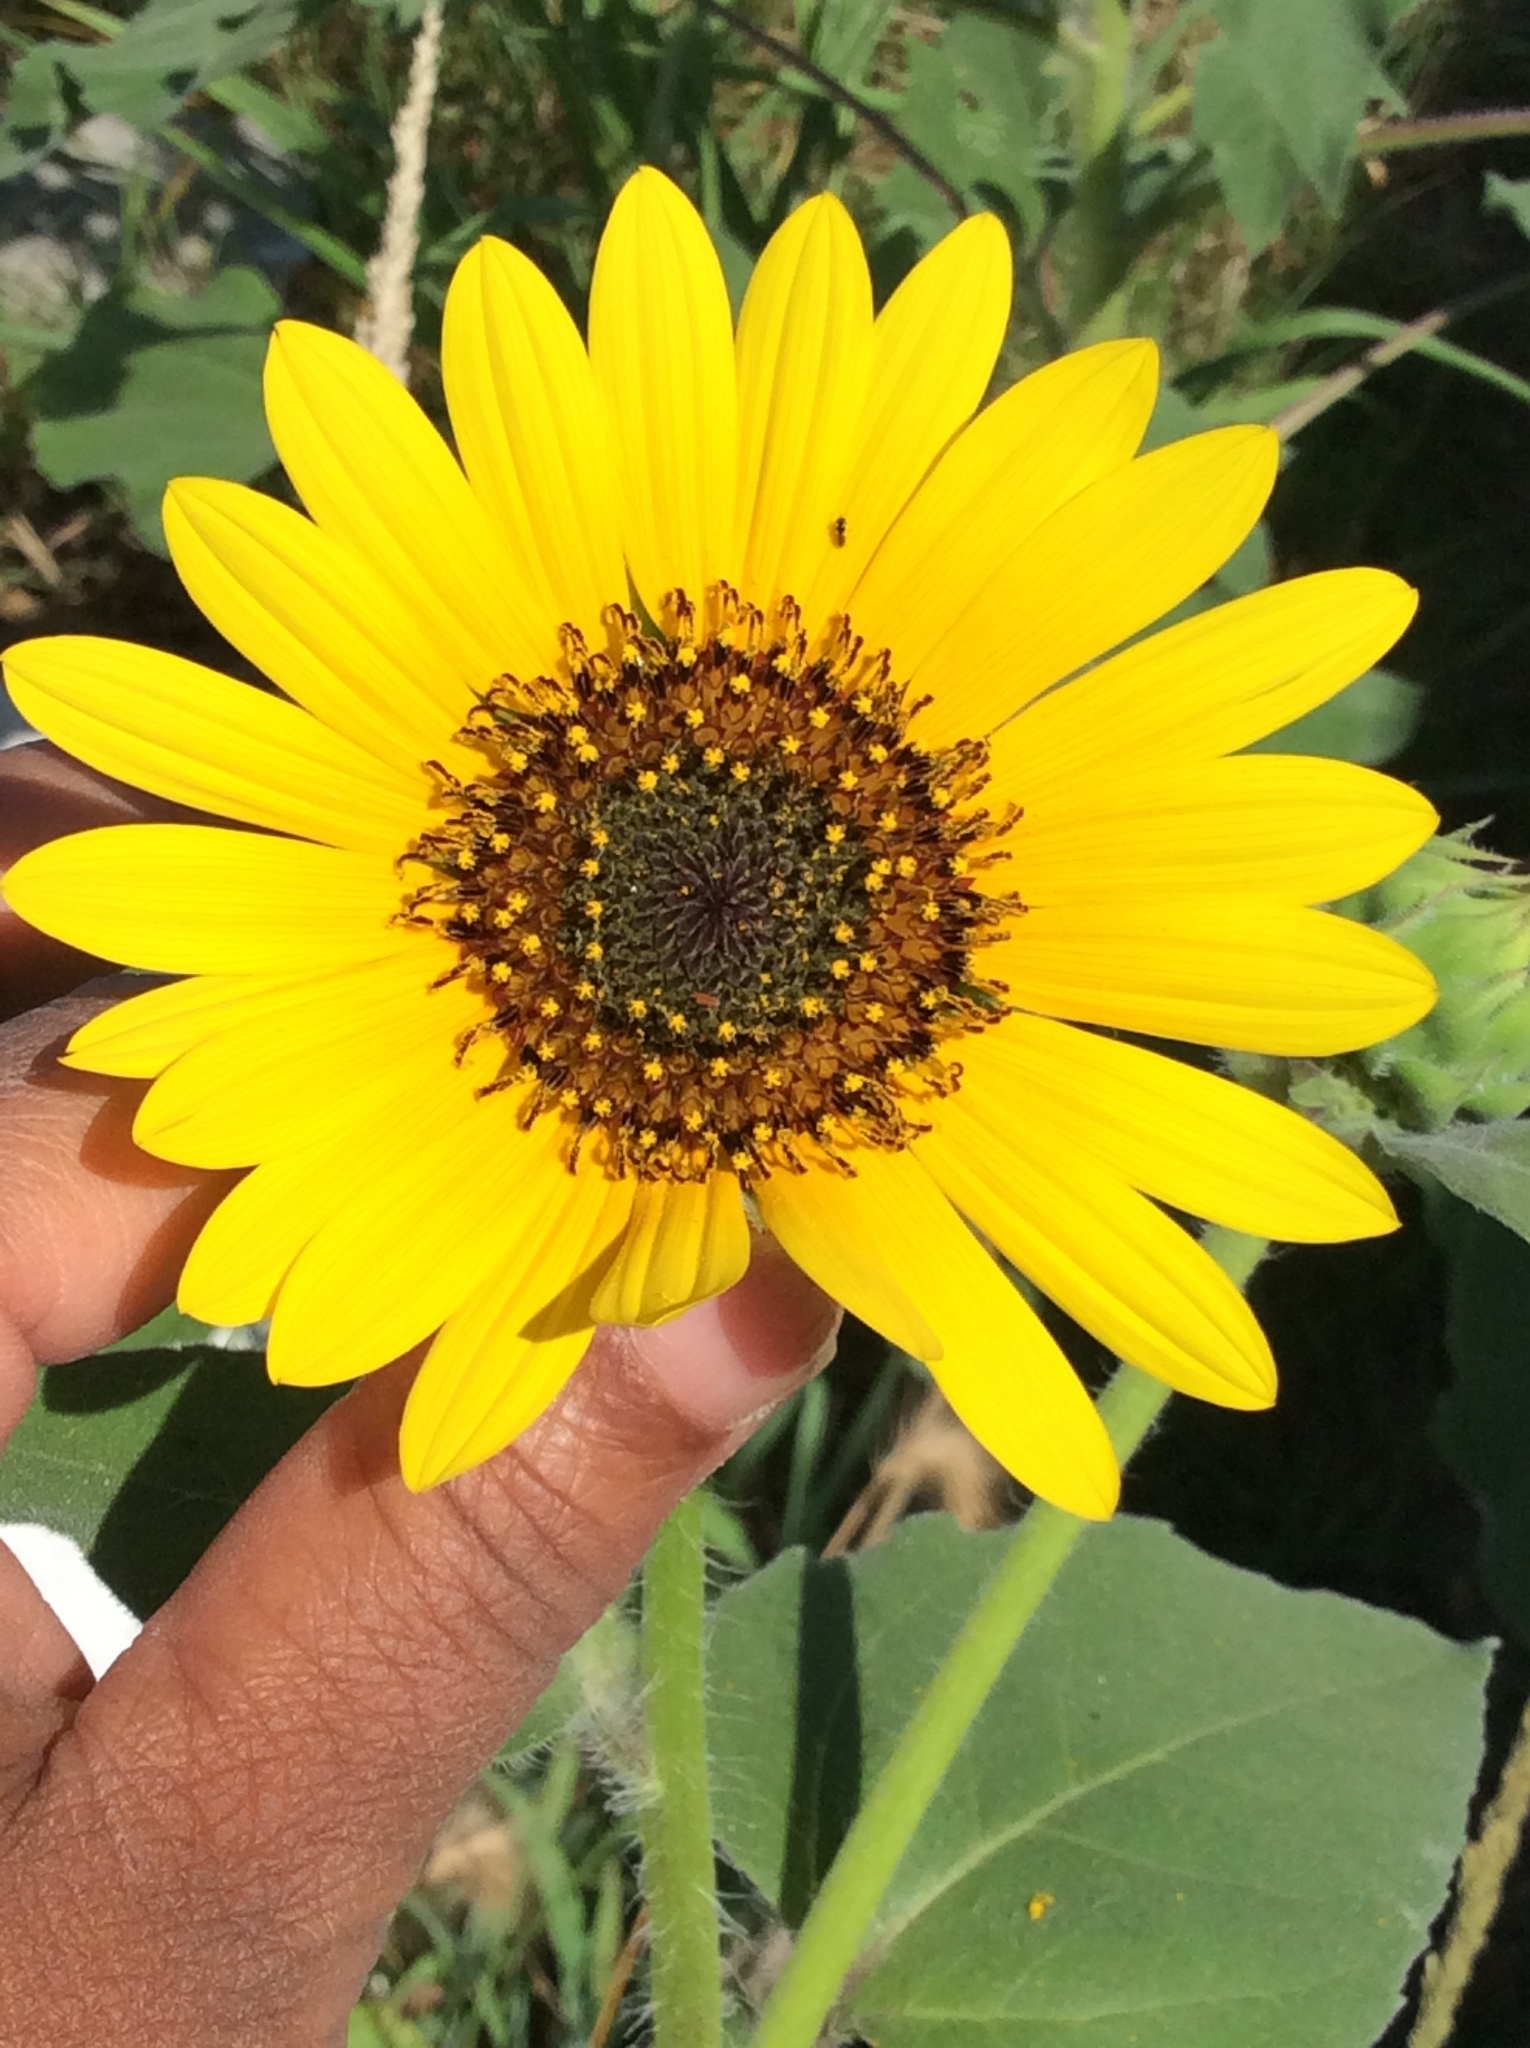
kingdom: Plantae
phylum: Tracheophyta
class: Magnoliopsida
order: Asterales
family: Asteraceae
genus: Helianthus
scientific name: Helianthus annuus
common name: Sunflower
